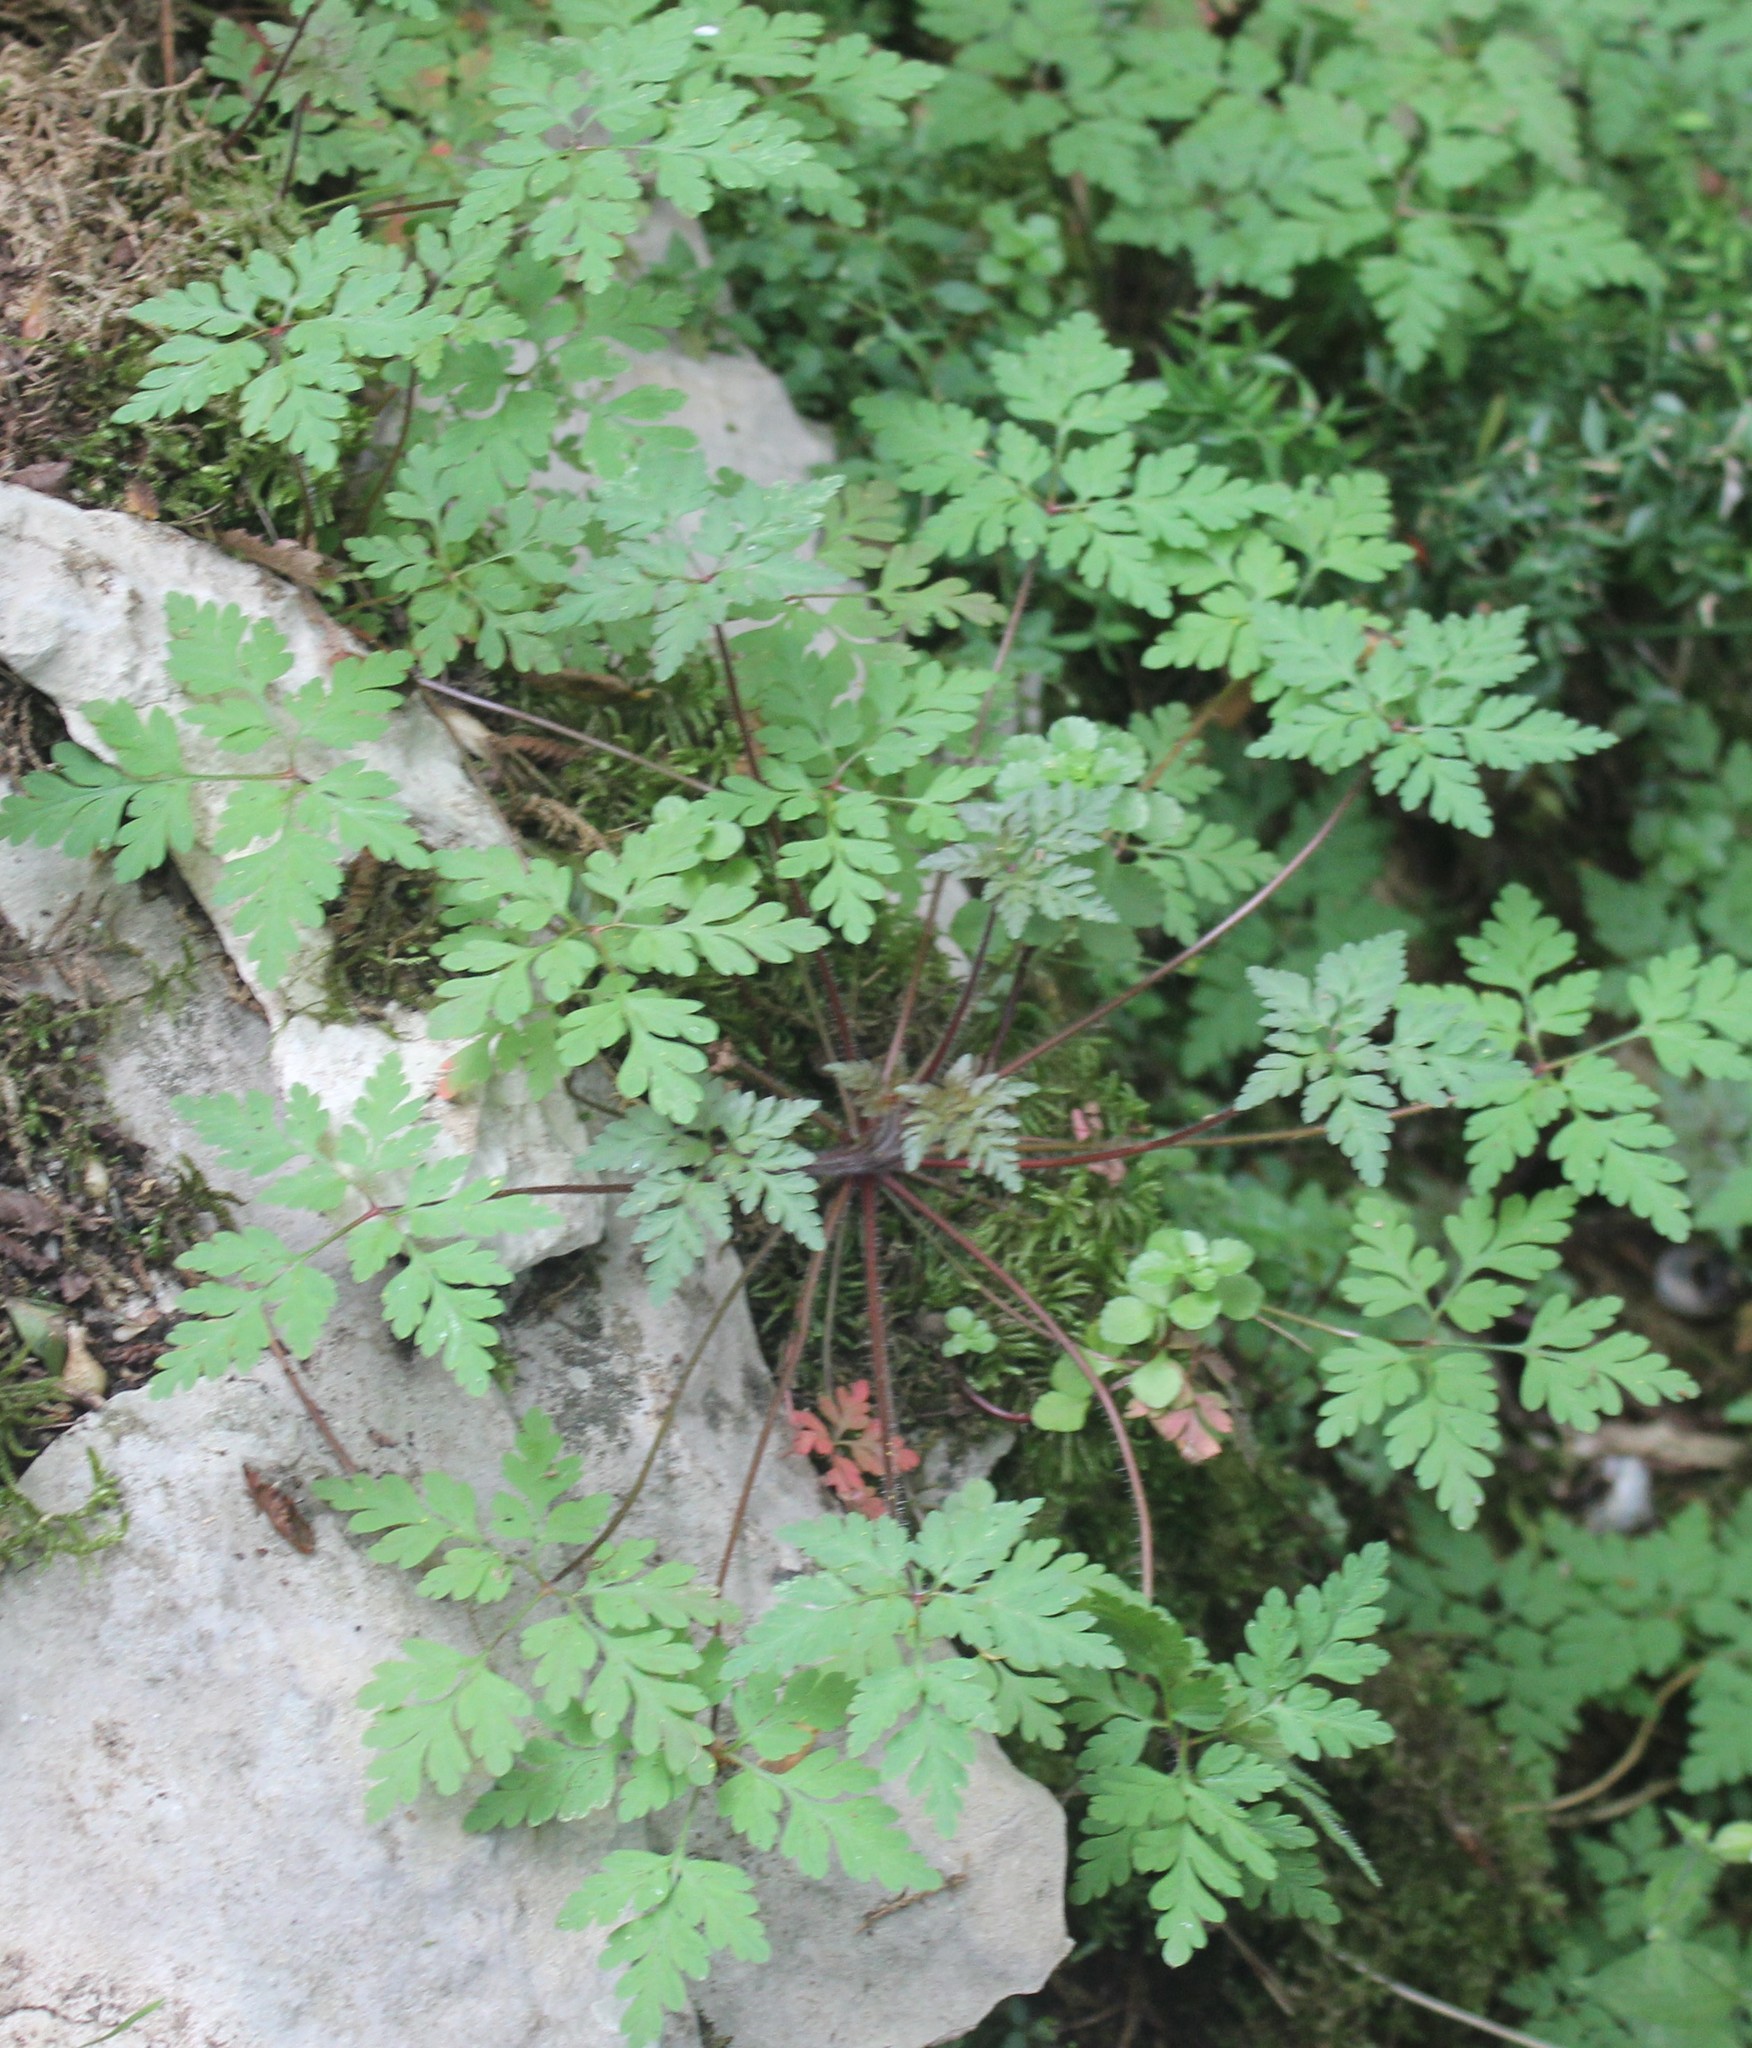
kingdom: Plantae
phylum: Tracheophyta
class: Magnoliopsida
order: Geraniales
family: Geraniaceae
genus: Geranium
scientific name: Geranium robertianum
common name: Herb-robert
